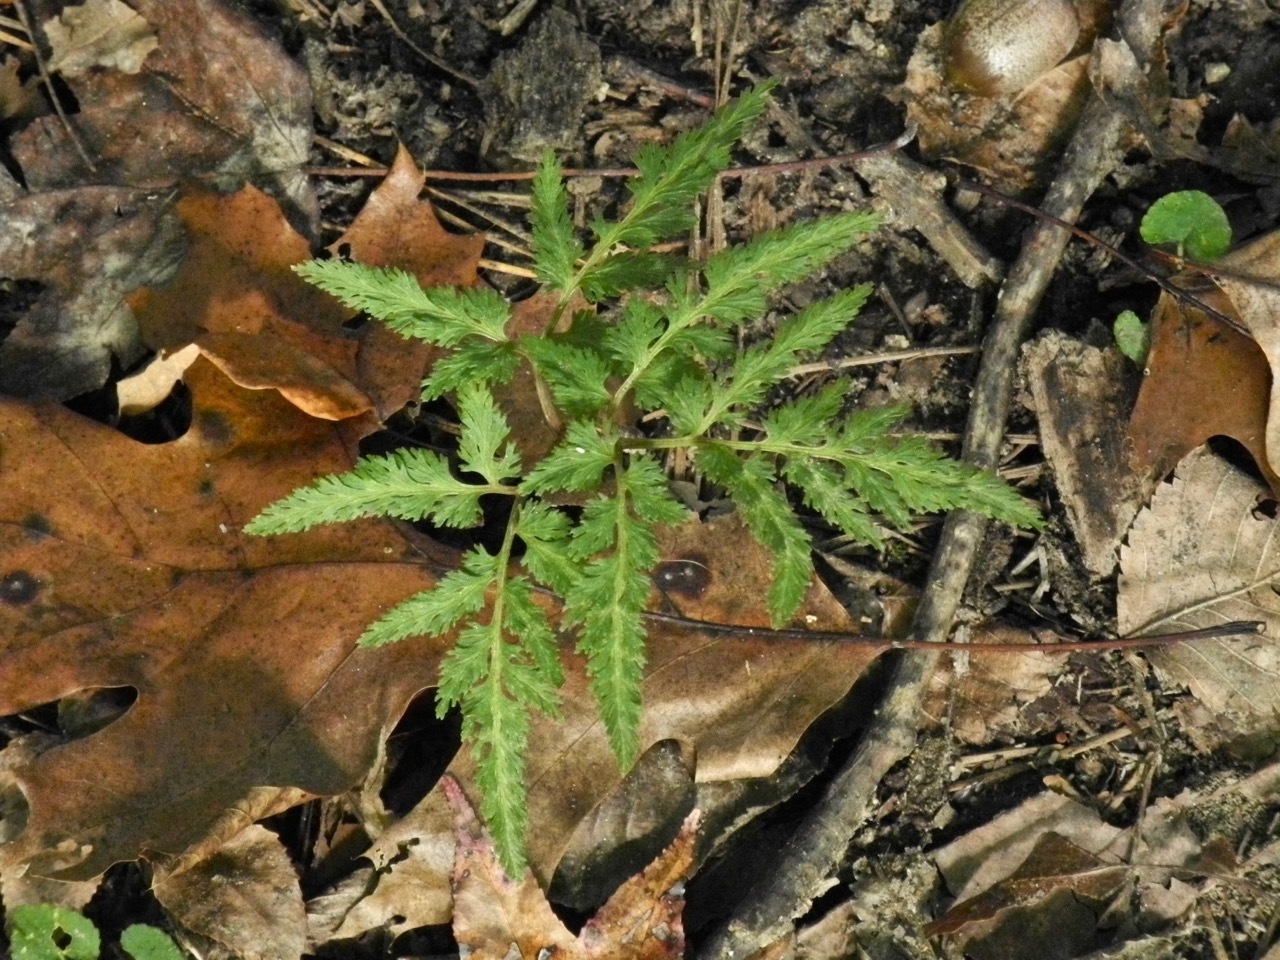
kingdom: Plantae
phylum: Tracheophyta
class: Polypodiopsida
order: Ophioglossales
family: Ophioglossaceae
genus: Sceptridium
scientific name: Sceptridium dissectum
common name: Cut-leaved grapefern
